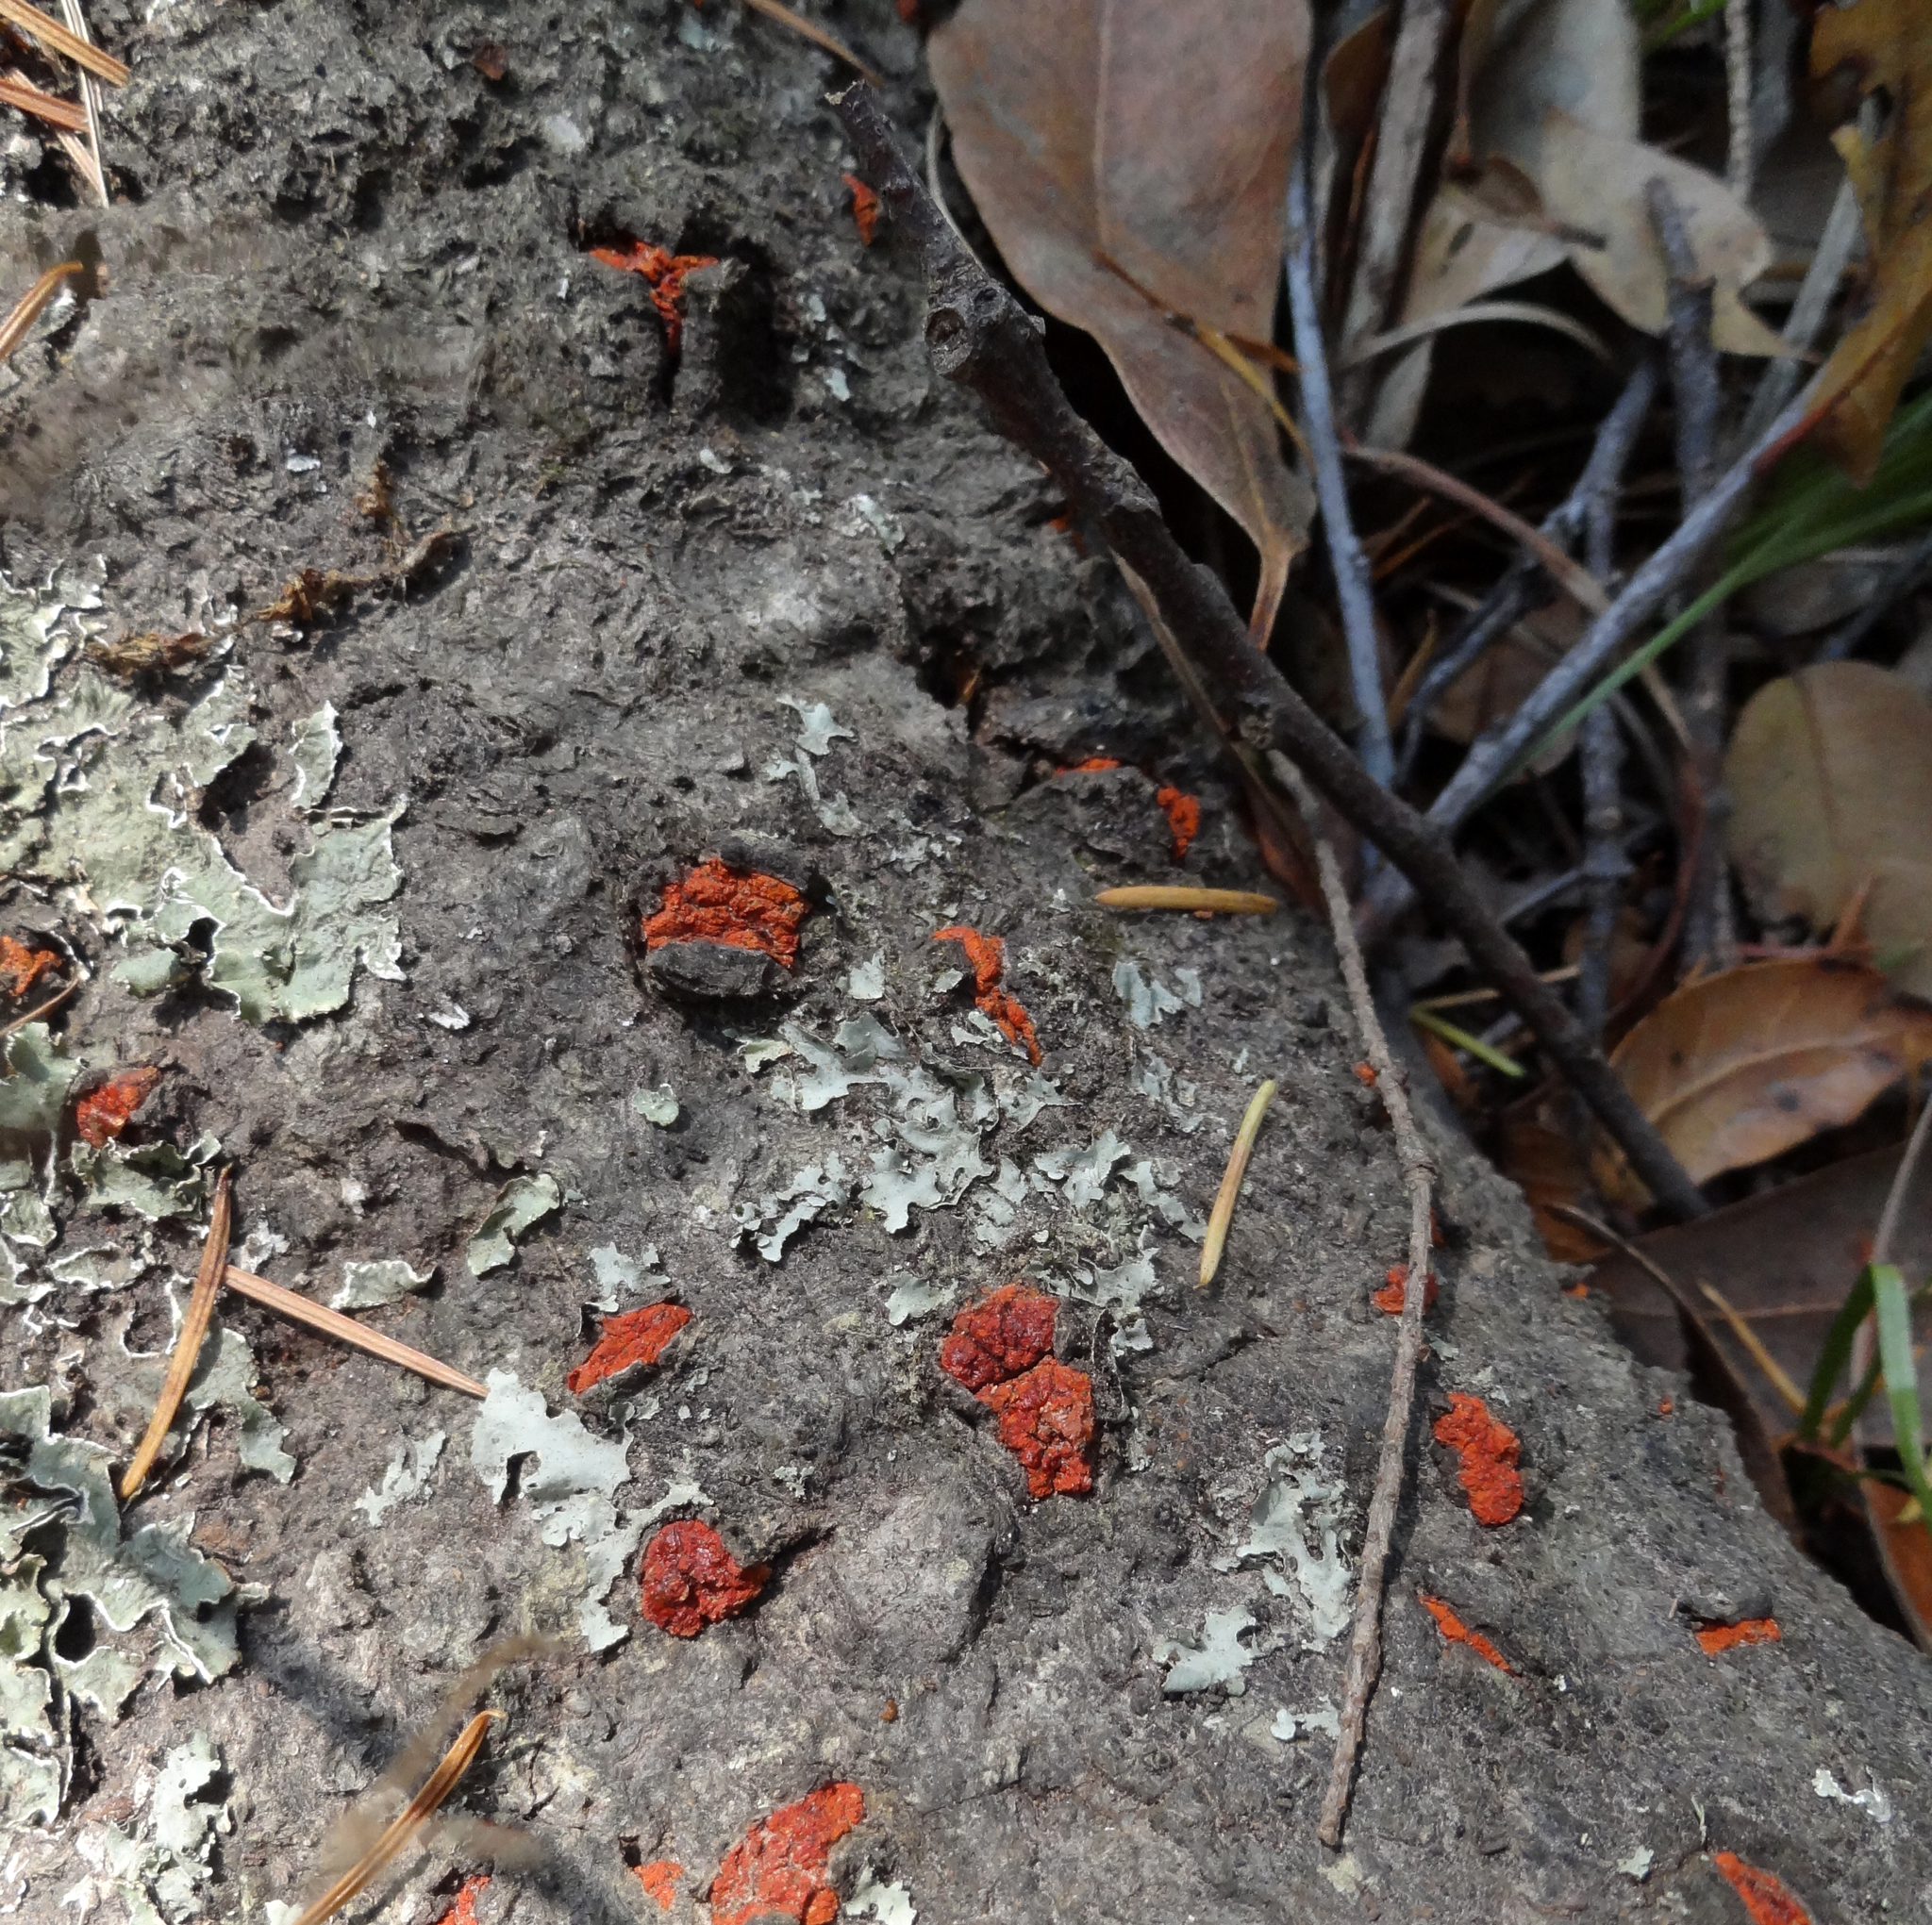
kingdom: Fungi
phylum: Ascomycota
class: Sordariomycetes
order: Diaporthales
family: Cryphonectriaceae
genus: Amphilogia
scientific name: Amphilogia gyrosa
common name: Orange hobnail canker
